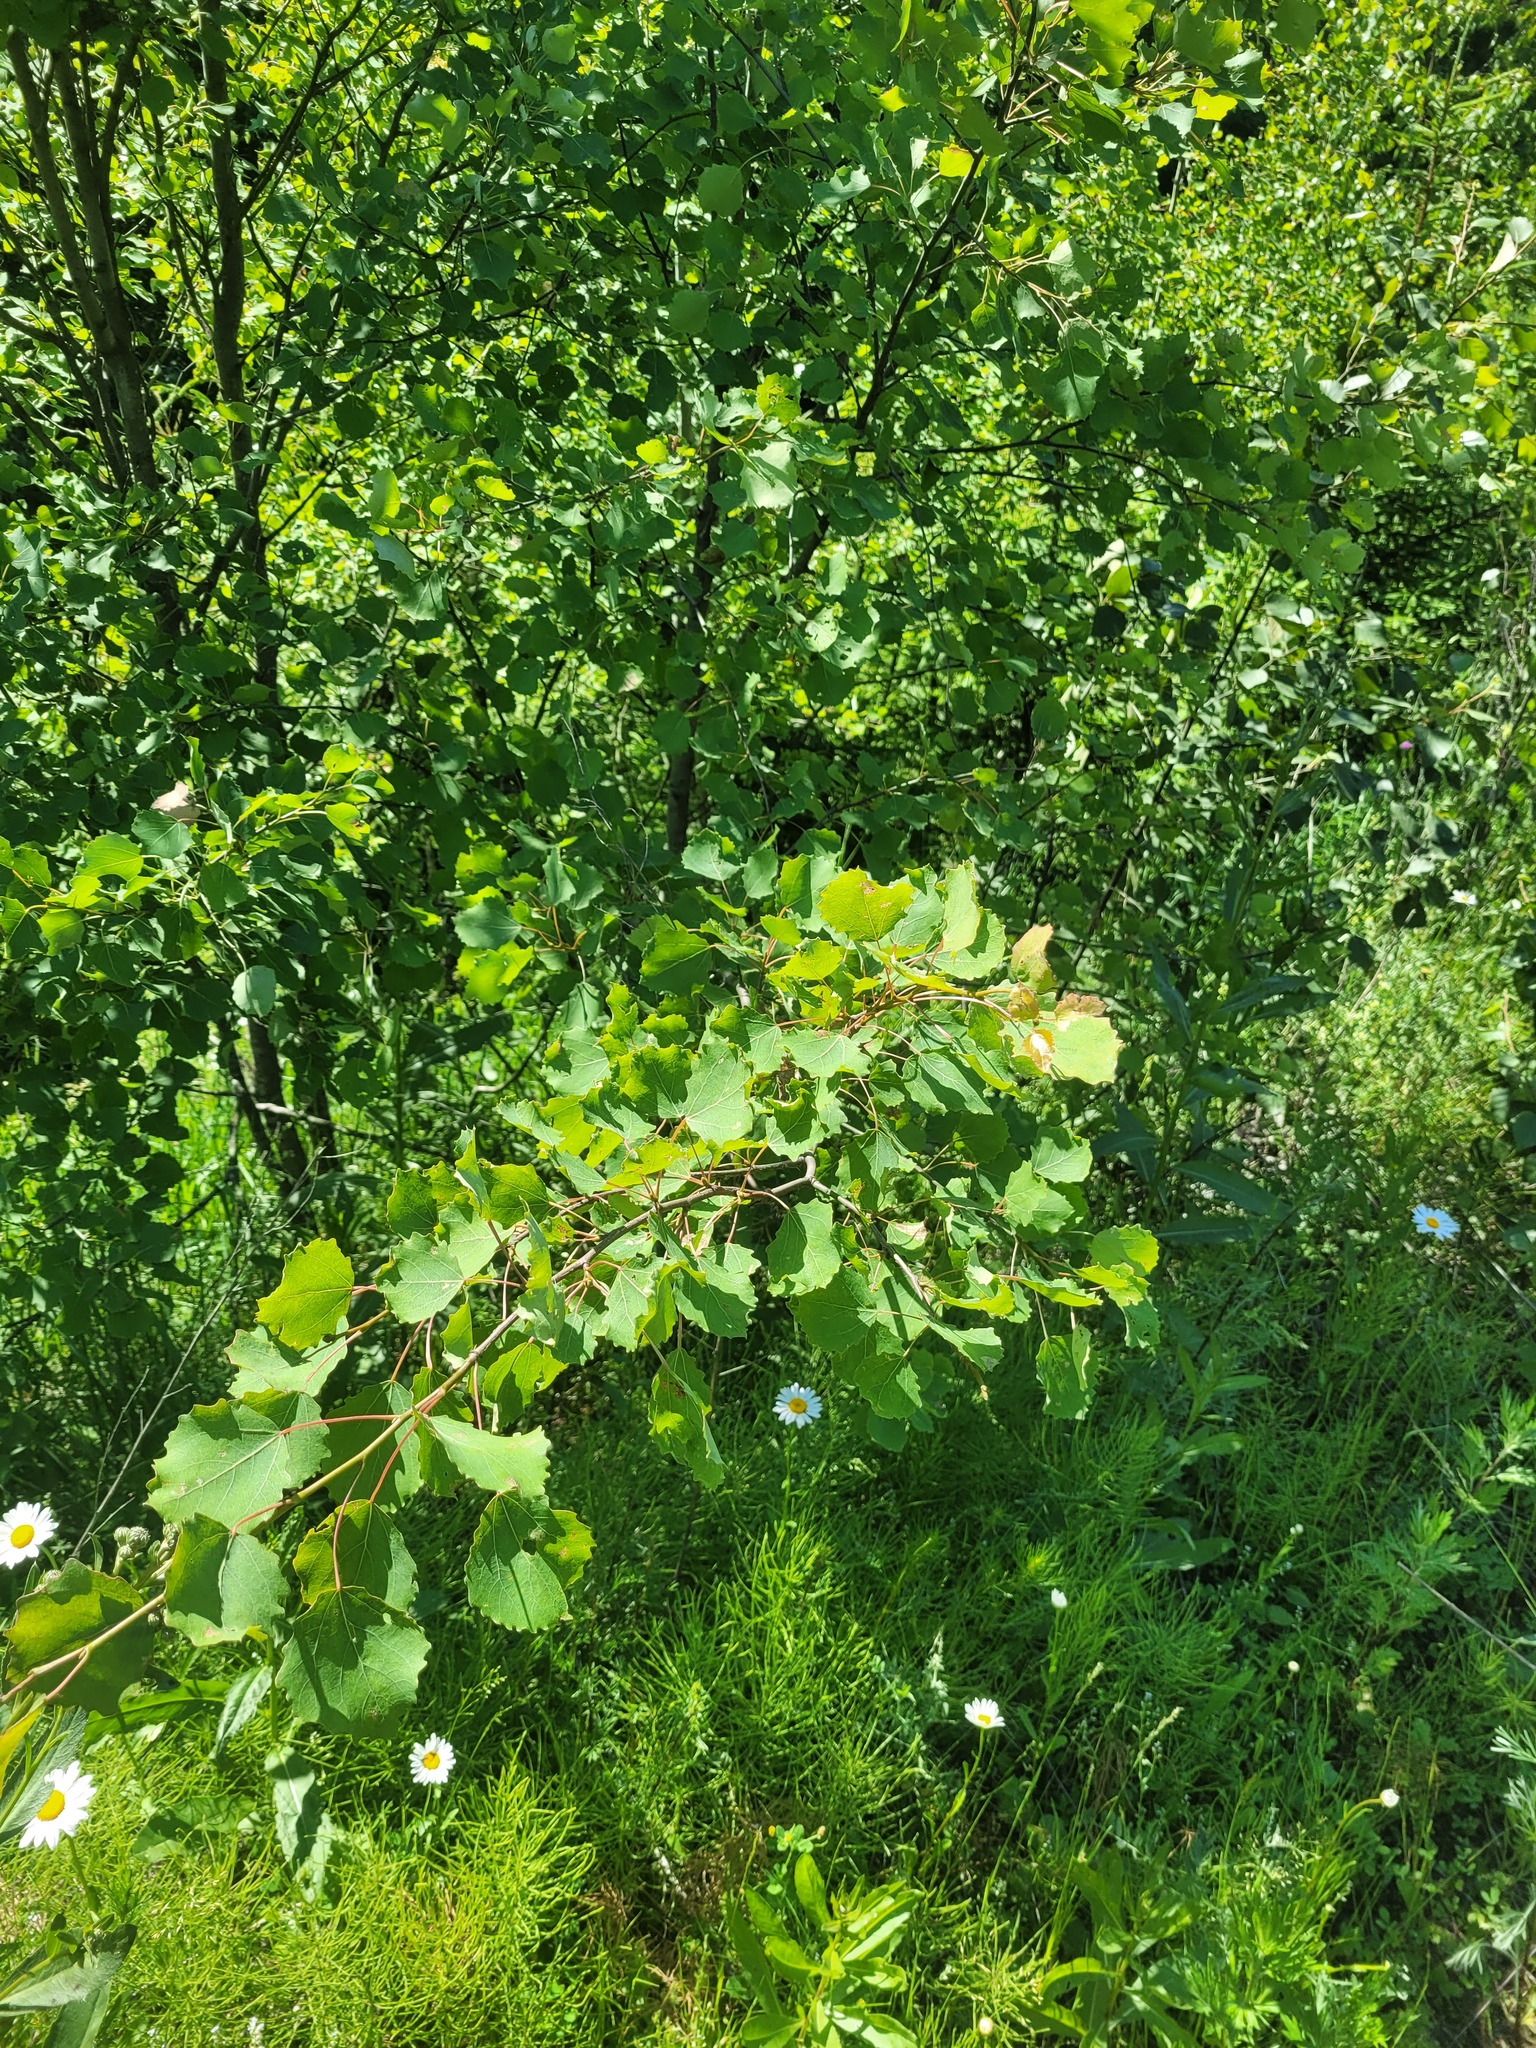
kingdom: Plantae
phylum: Tracheophyta
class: Magnoliopsida
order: Malpighiales
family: Salicaceae
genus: Populus
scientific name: Populus tremula
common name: European aspen
